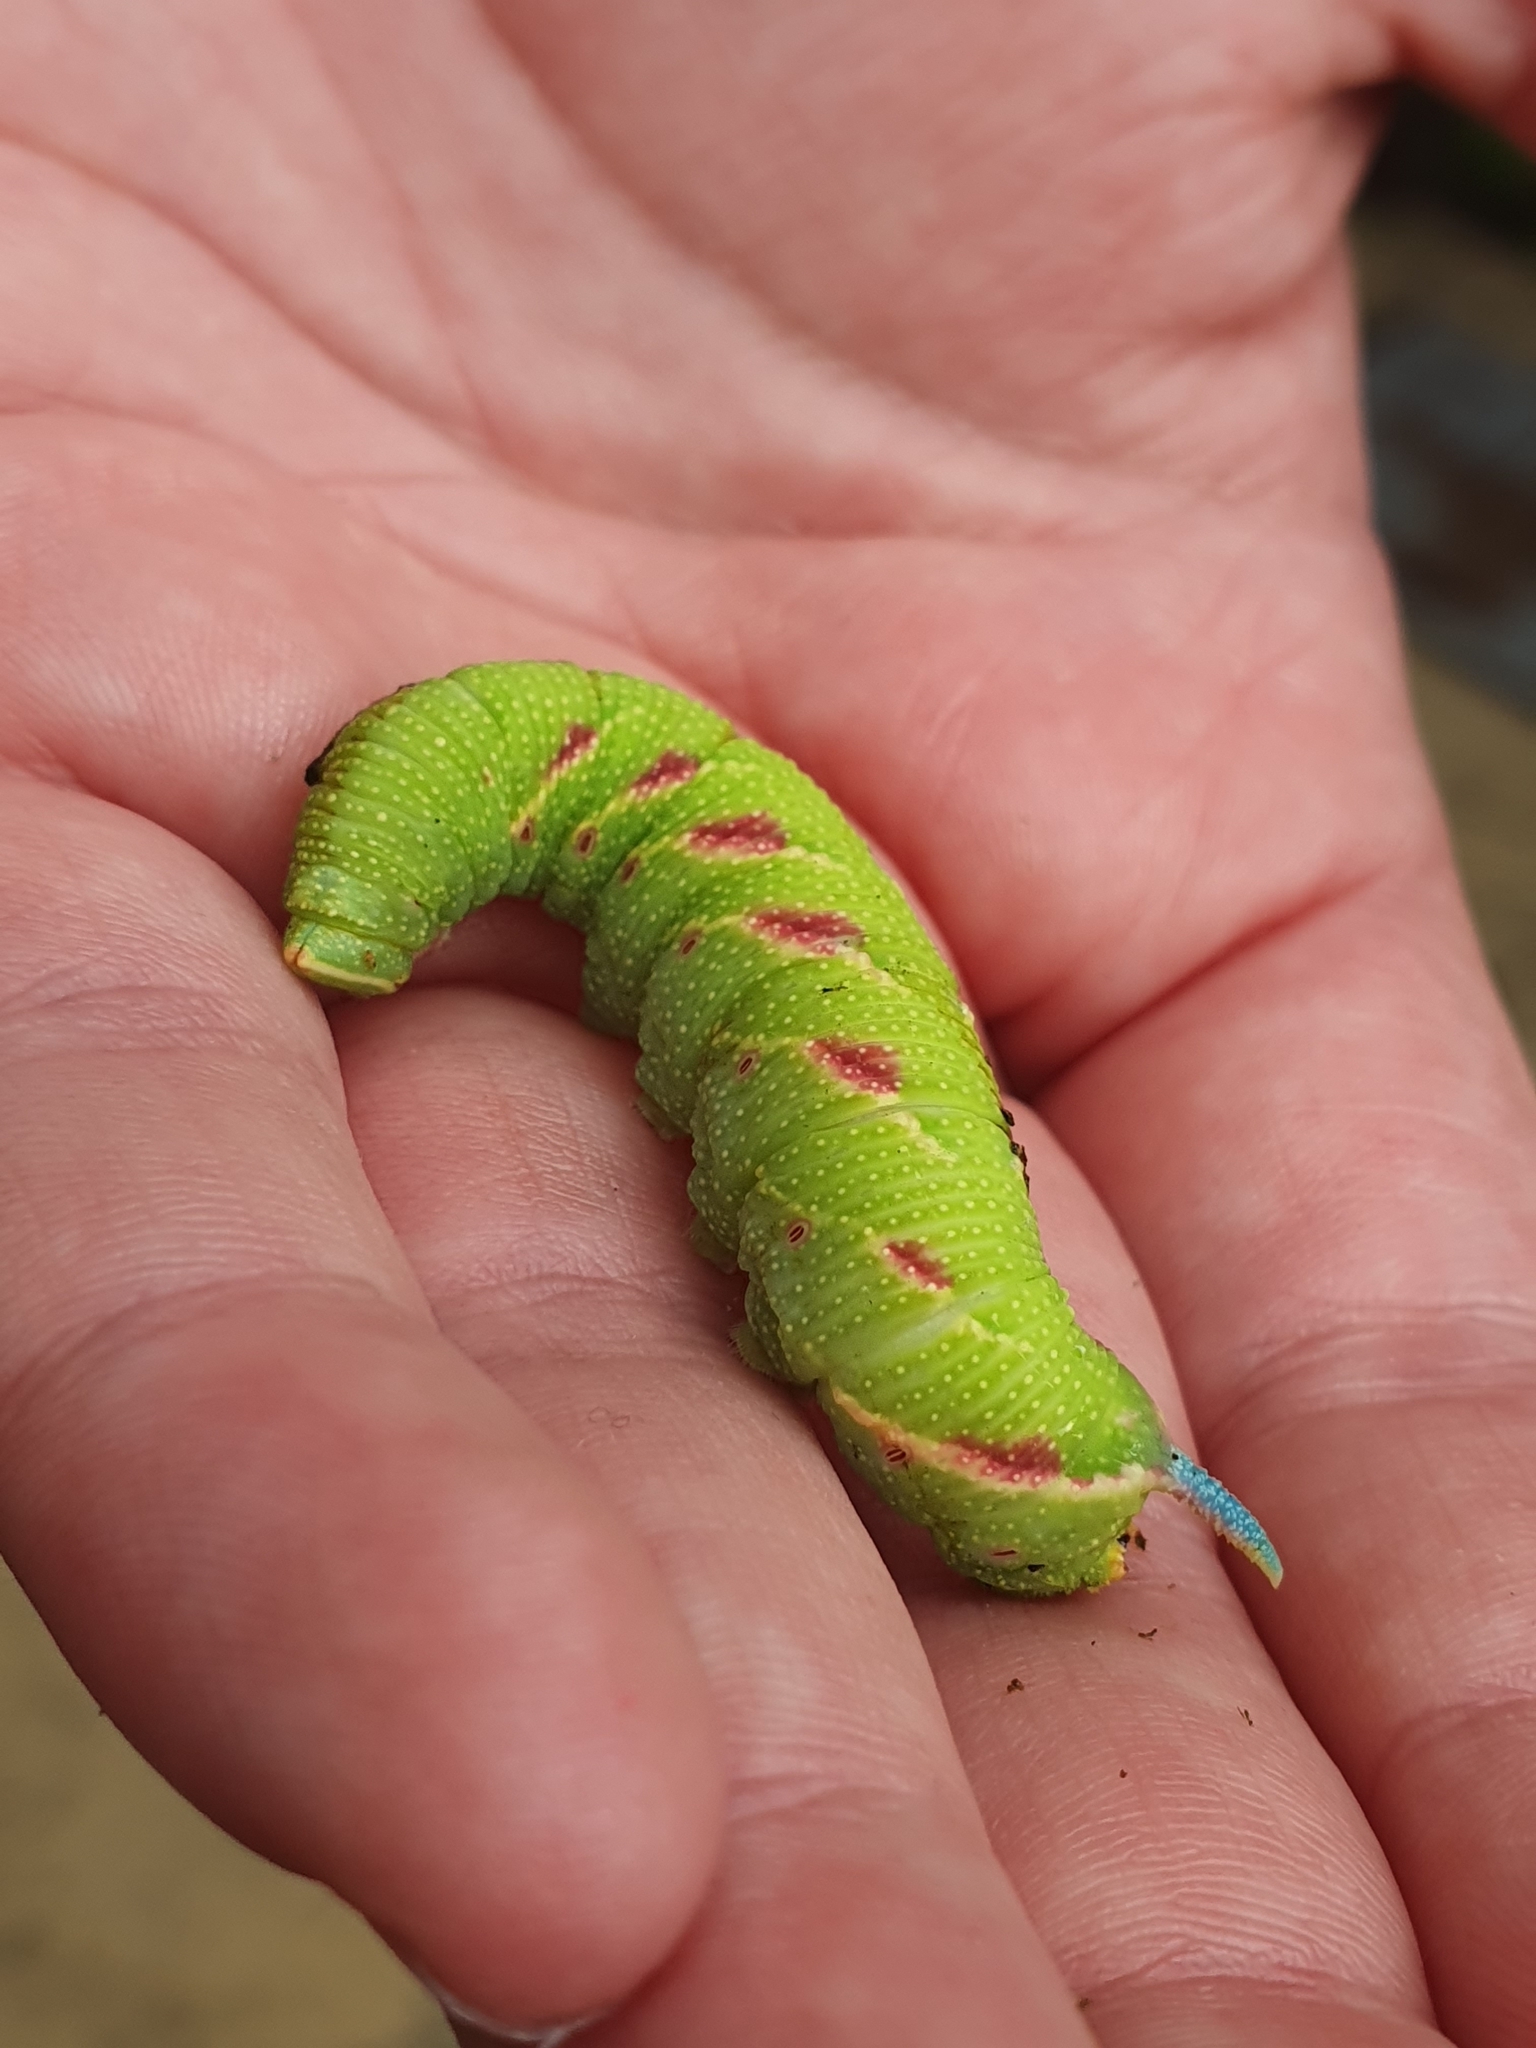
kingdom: Animalia
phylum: Arthropoda
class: Insecta
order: Lepidoptera
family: Sphingidae
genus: Mimas
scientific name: Mimas tiliae
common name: Lime hawk-moth
